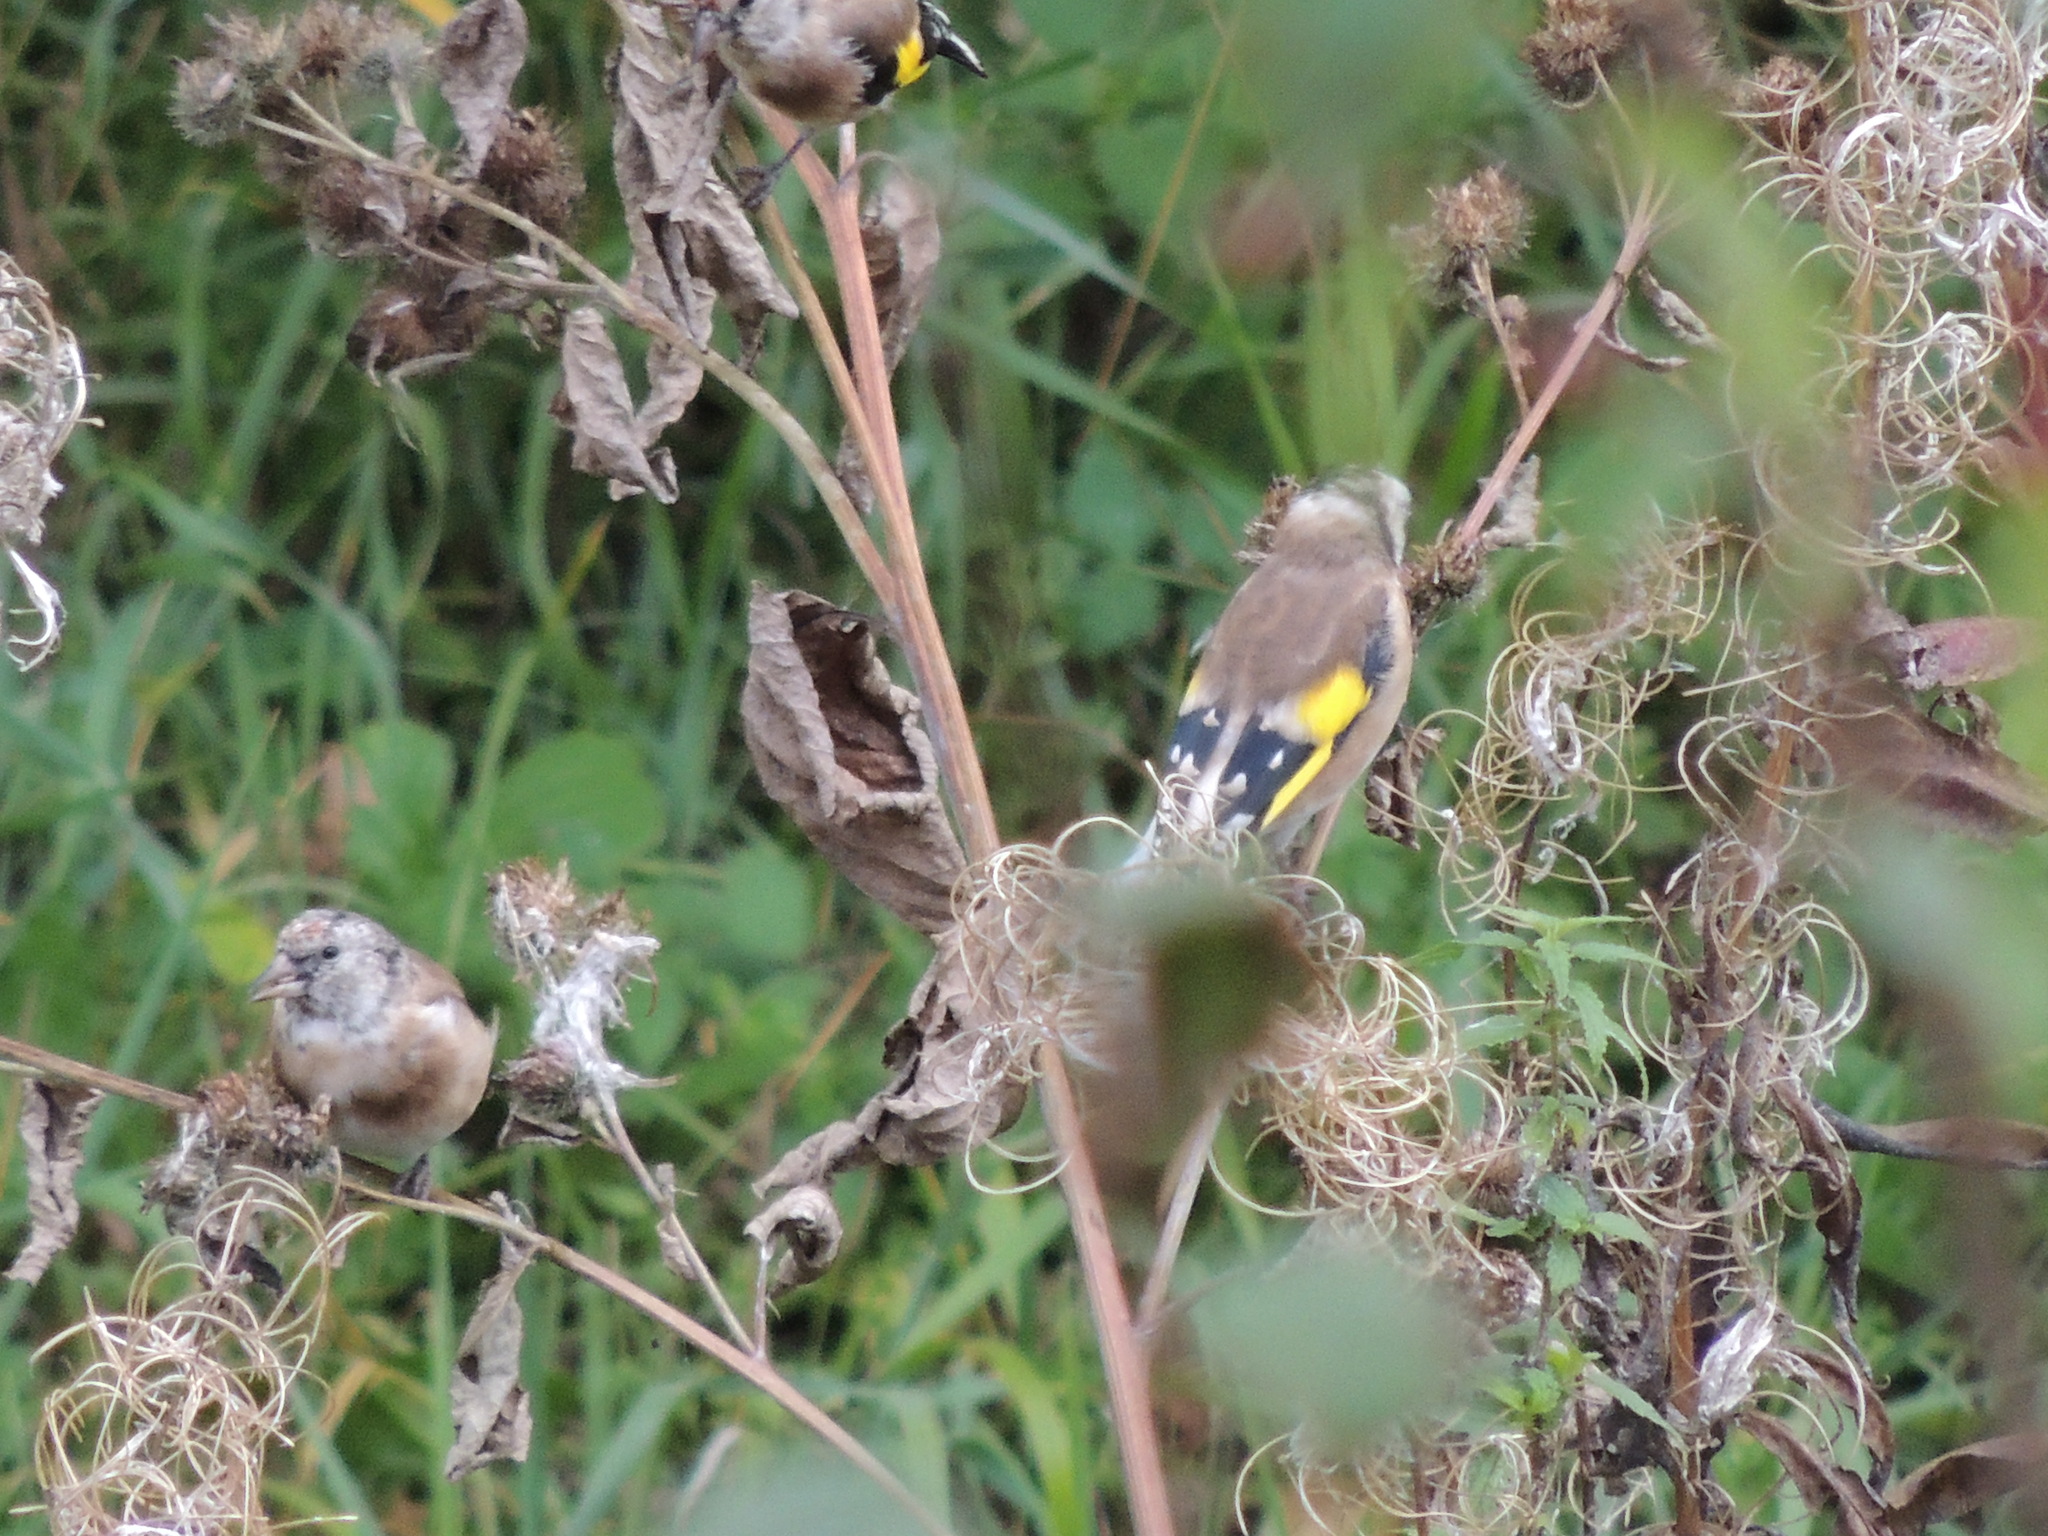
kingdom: Animalia
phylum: Chordata
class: Aves
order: Passeriformes
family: Fringillidae
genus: Carduelis
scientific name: Carduelis carduelis
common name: European goldfinch
